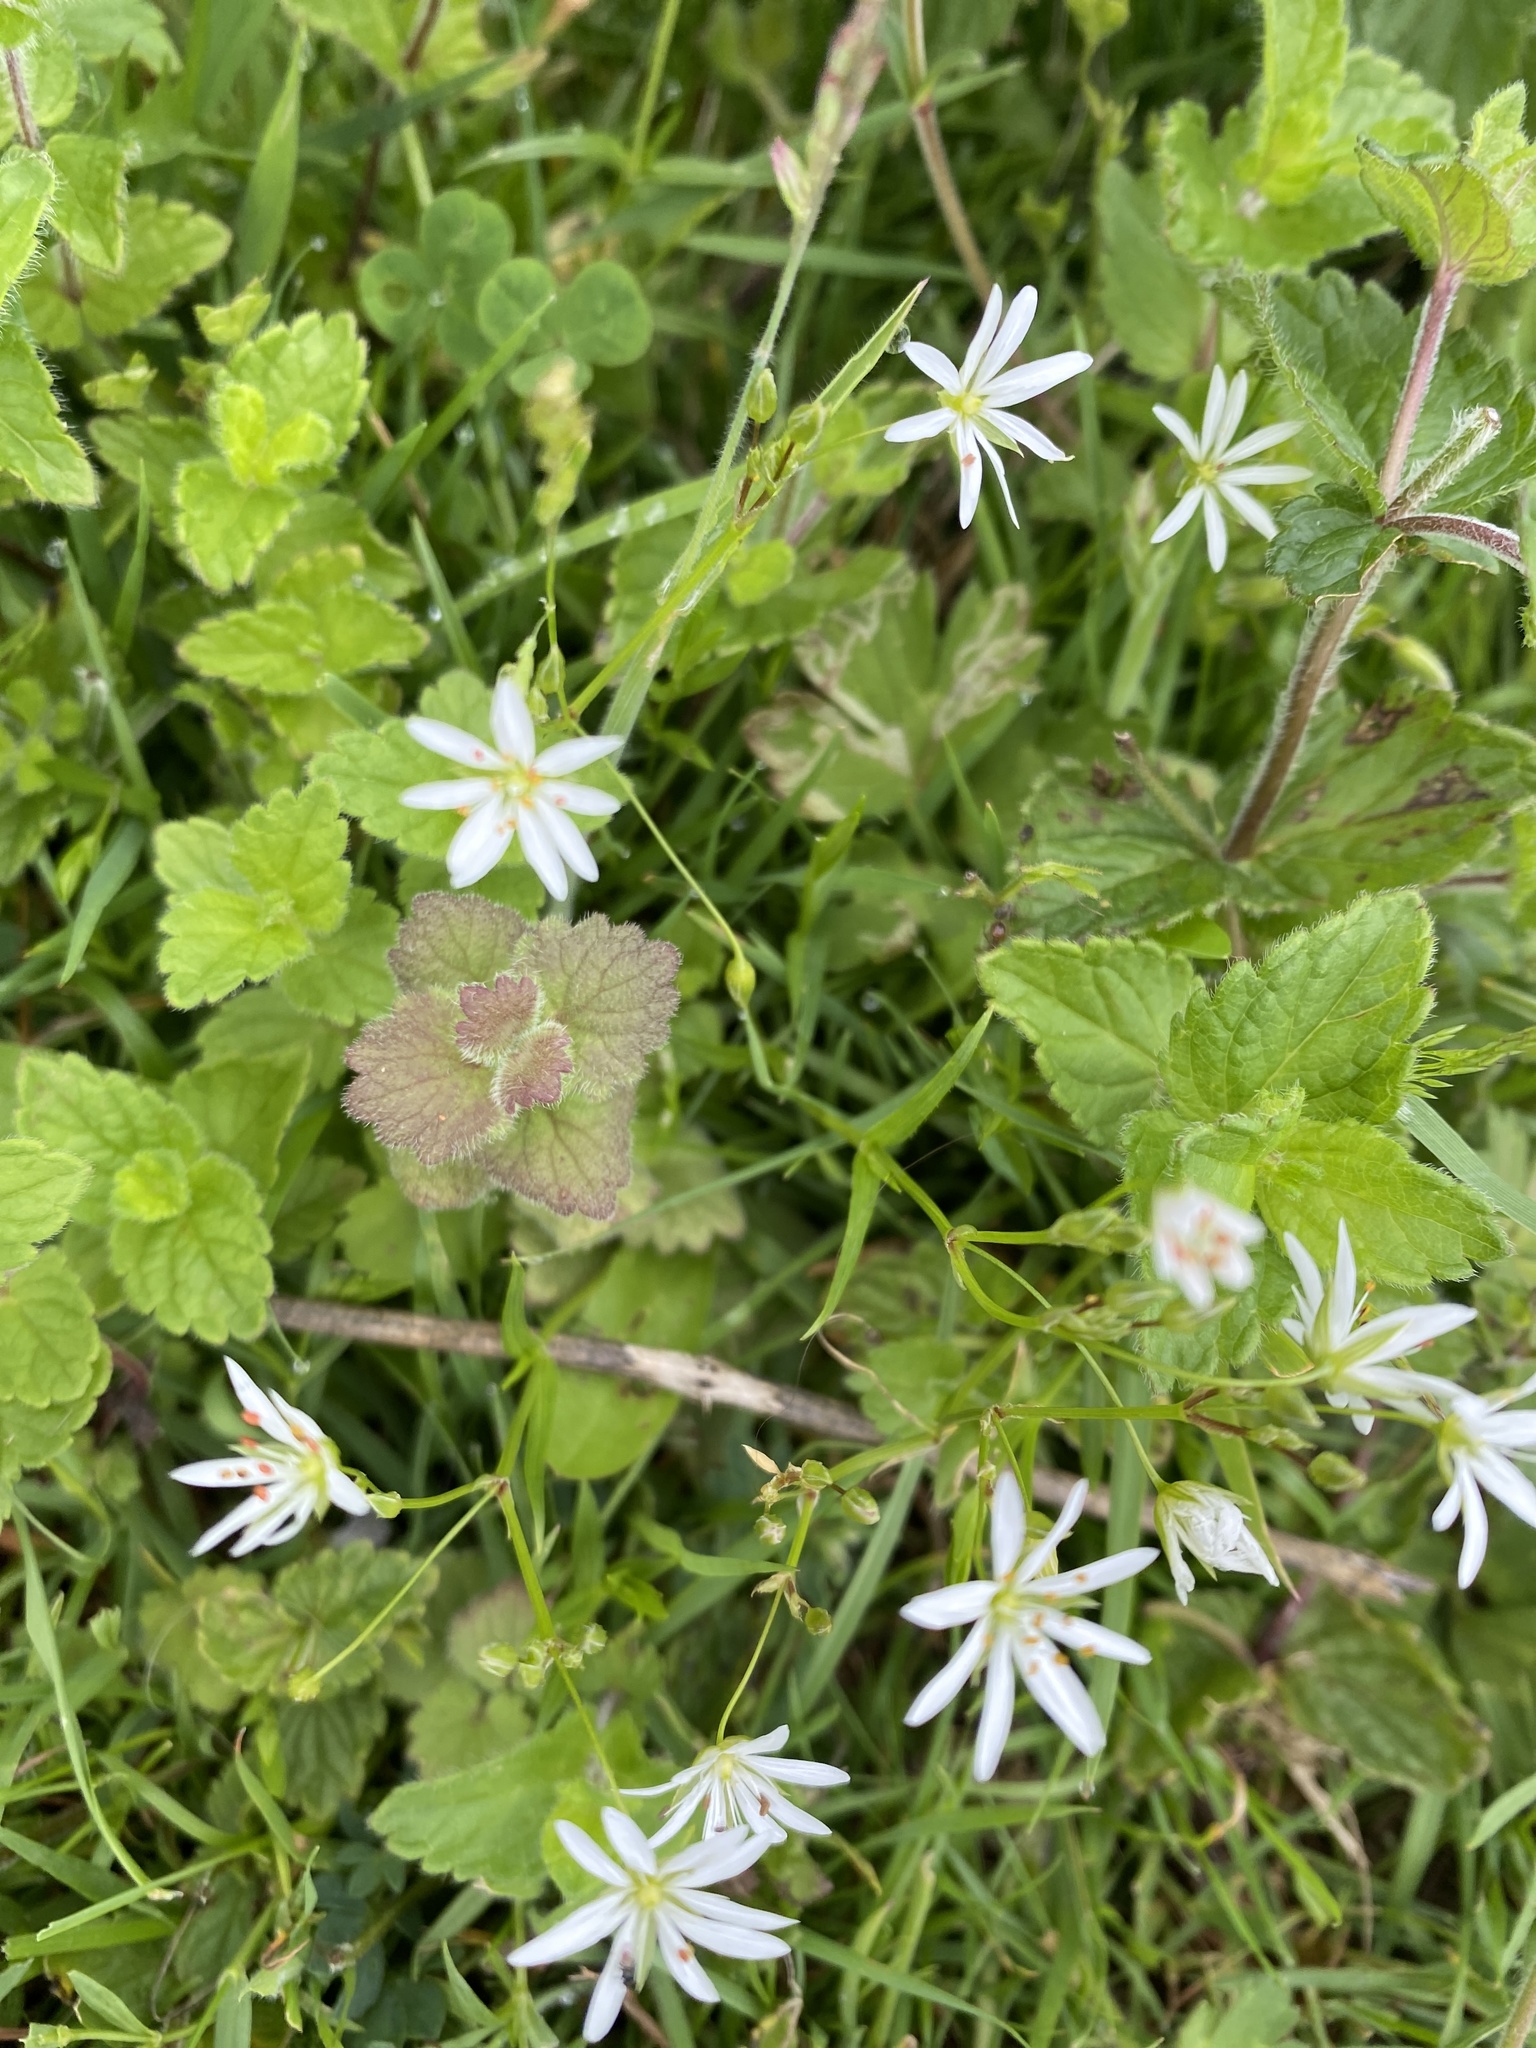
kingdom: Plantae
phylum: Tracheophyta
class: Magnoliopsida
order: Caryophyllales
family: Caryophyllaceae
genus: Stellaria
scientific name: Stellaria graminea
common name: Grass-like starwort
